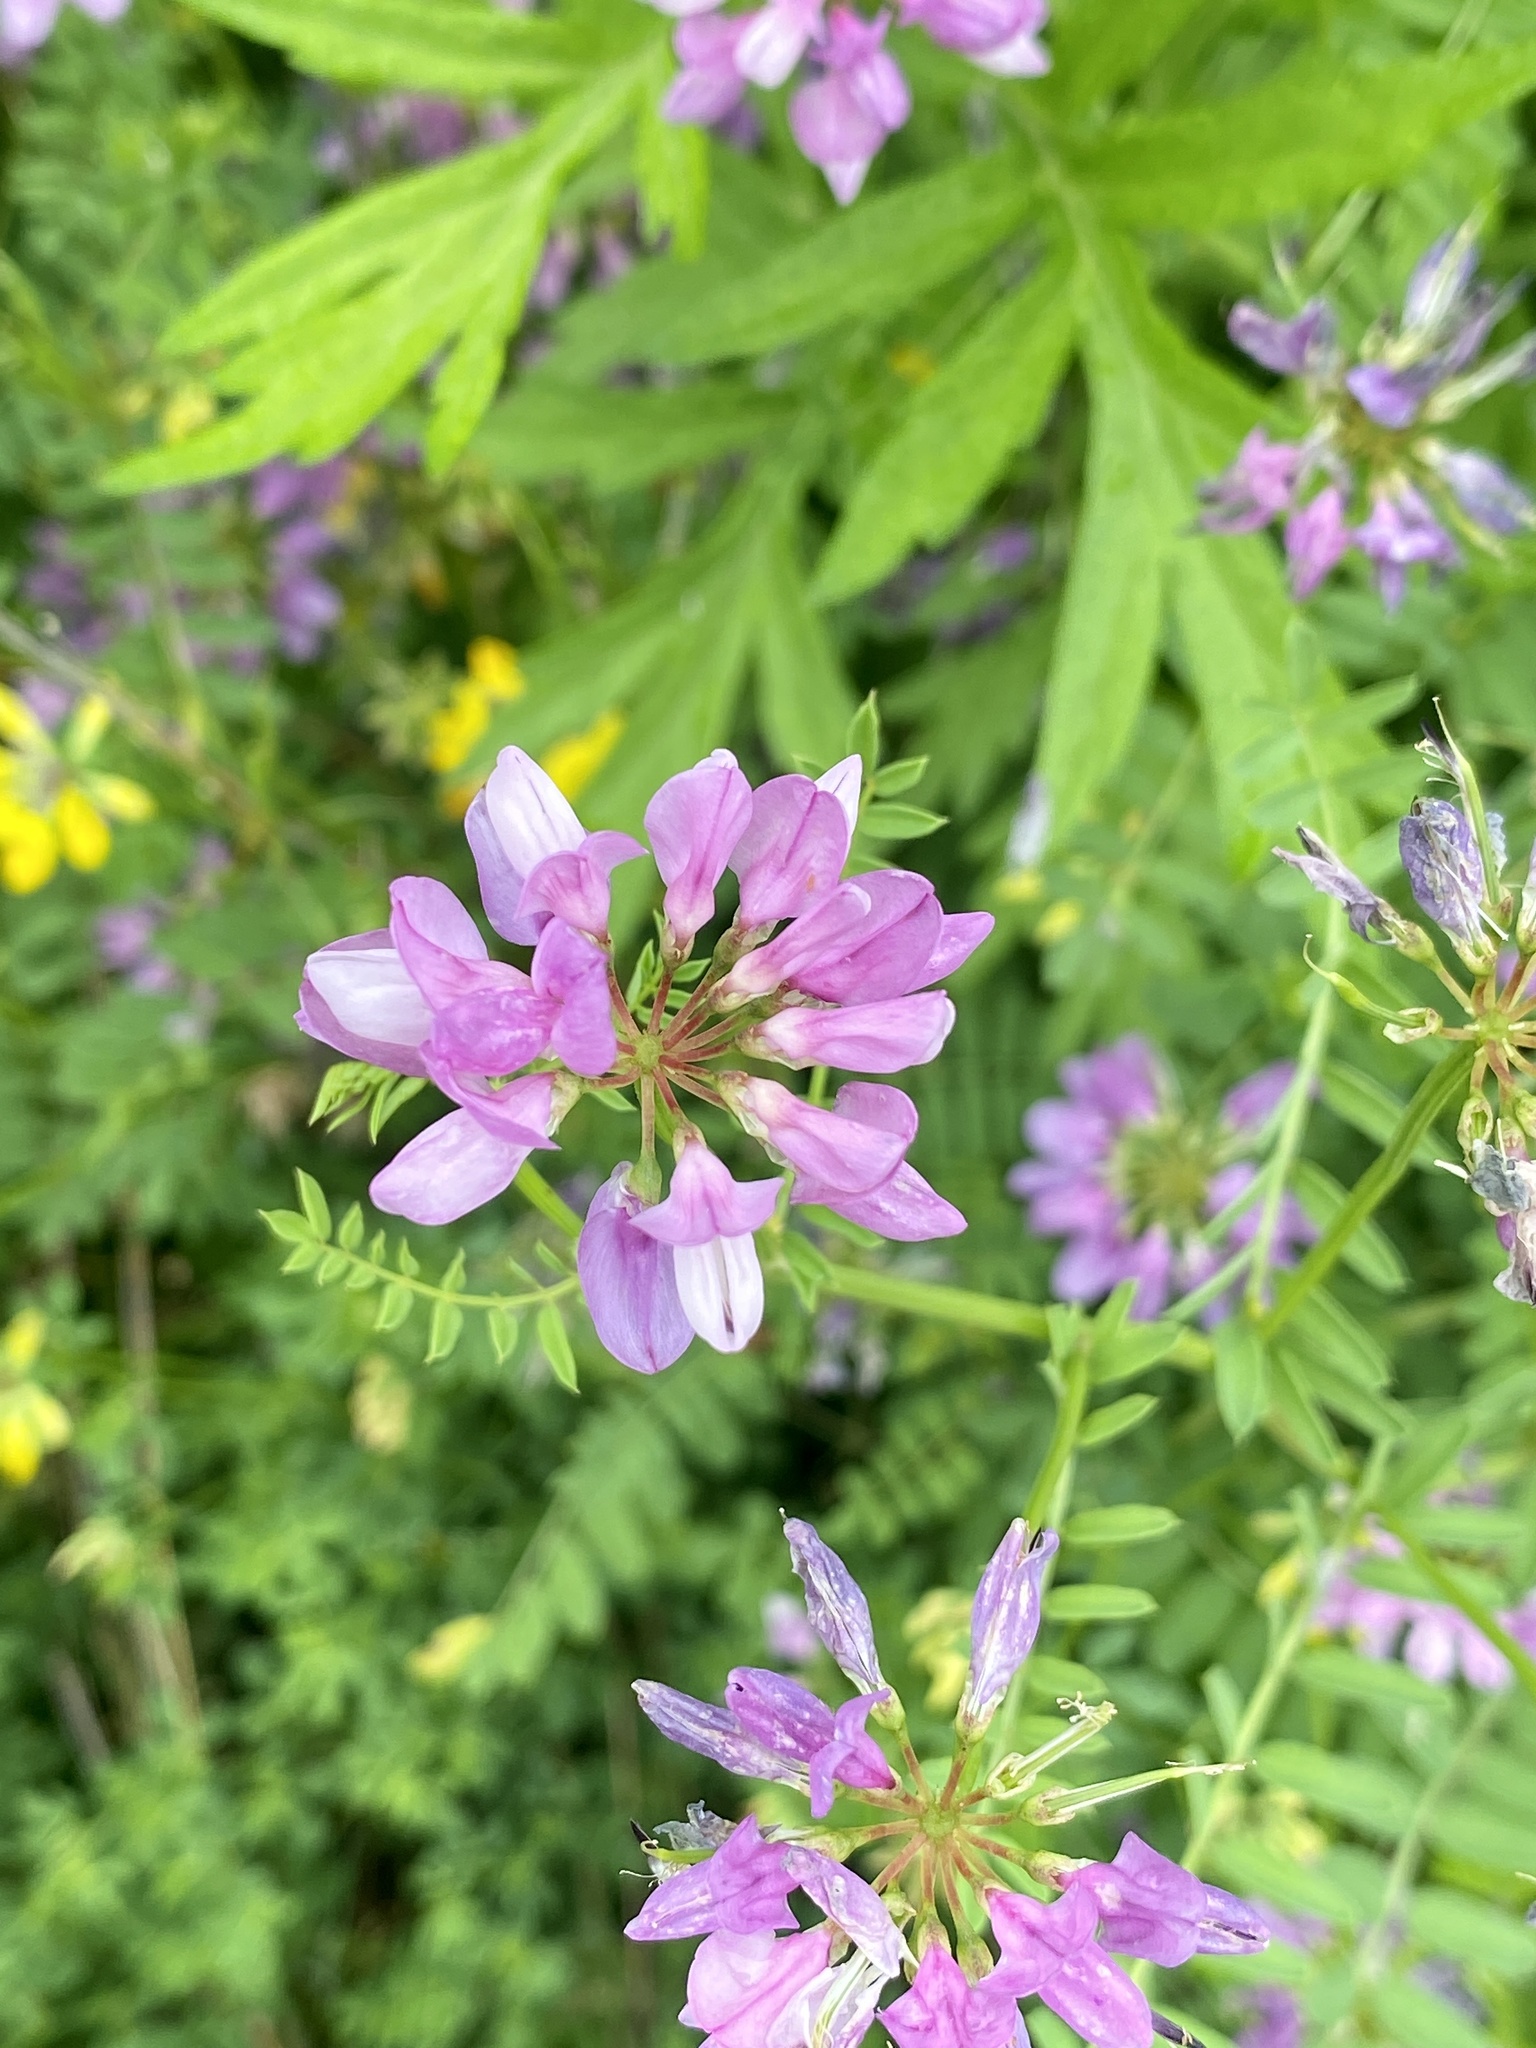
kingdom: Plantae
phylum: Tracheophyta
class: Magnoliopsida
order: Fabales
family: Fabaceae
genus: Coronilla
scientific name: Coronilla varia
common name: Crownvetch
